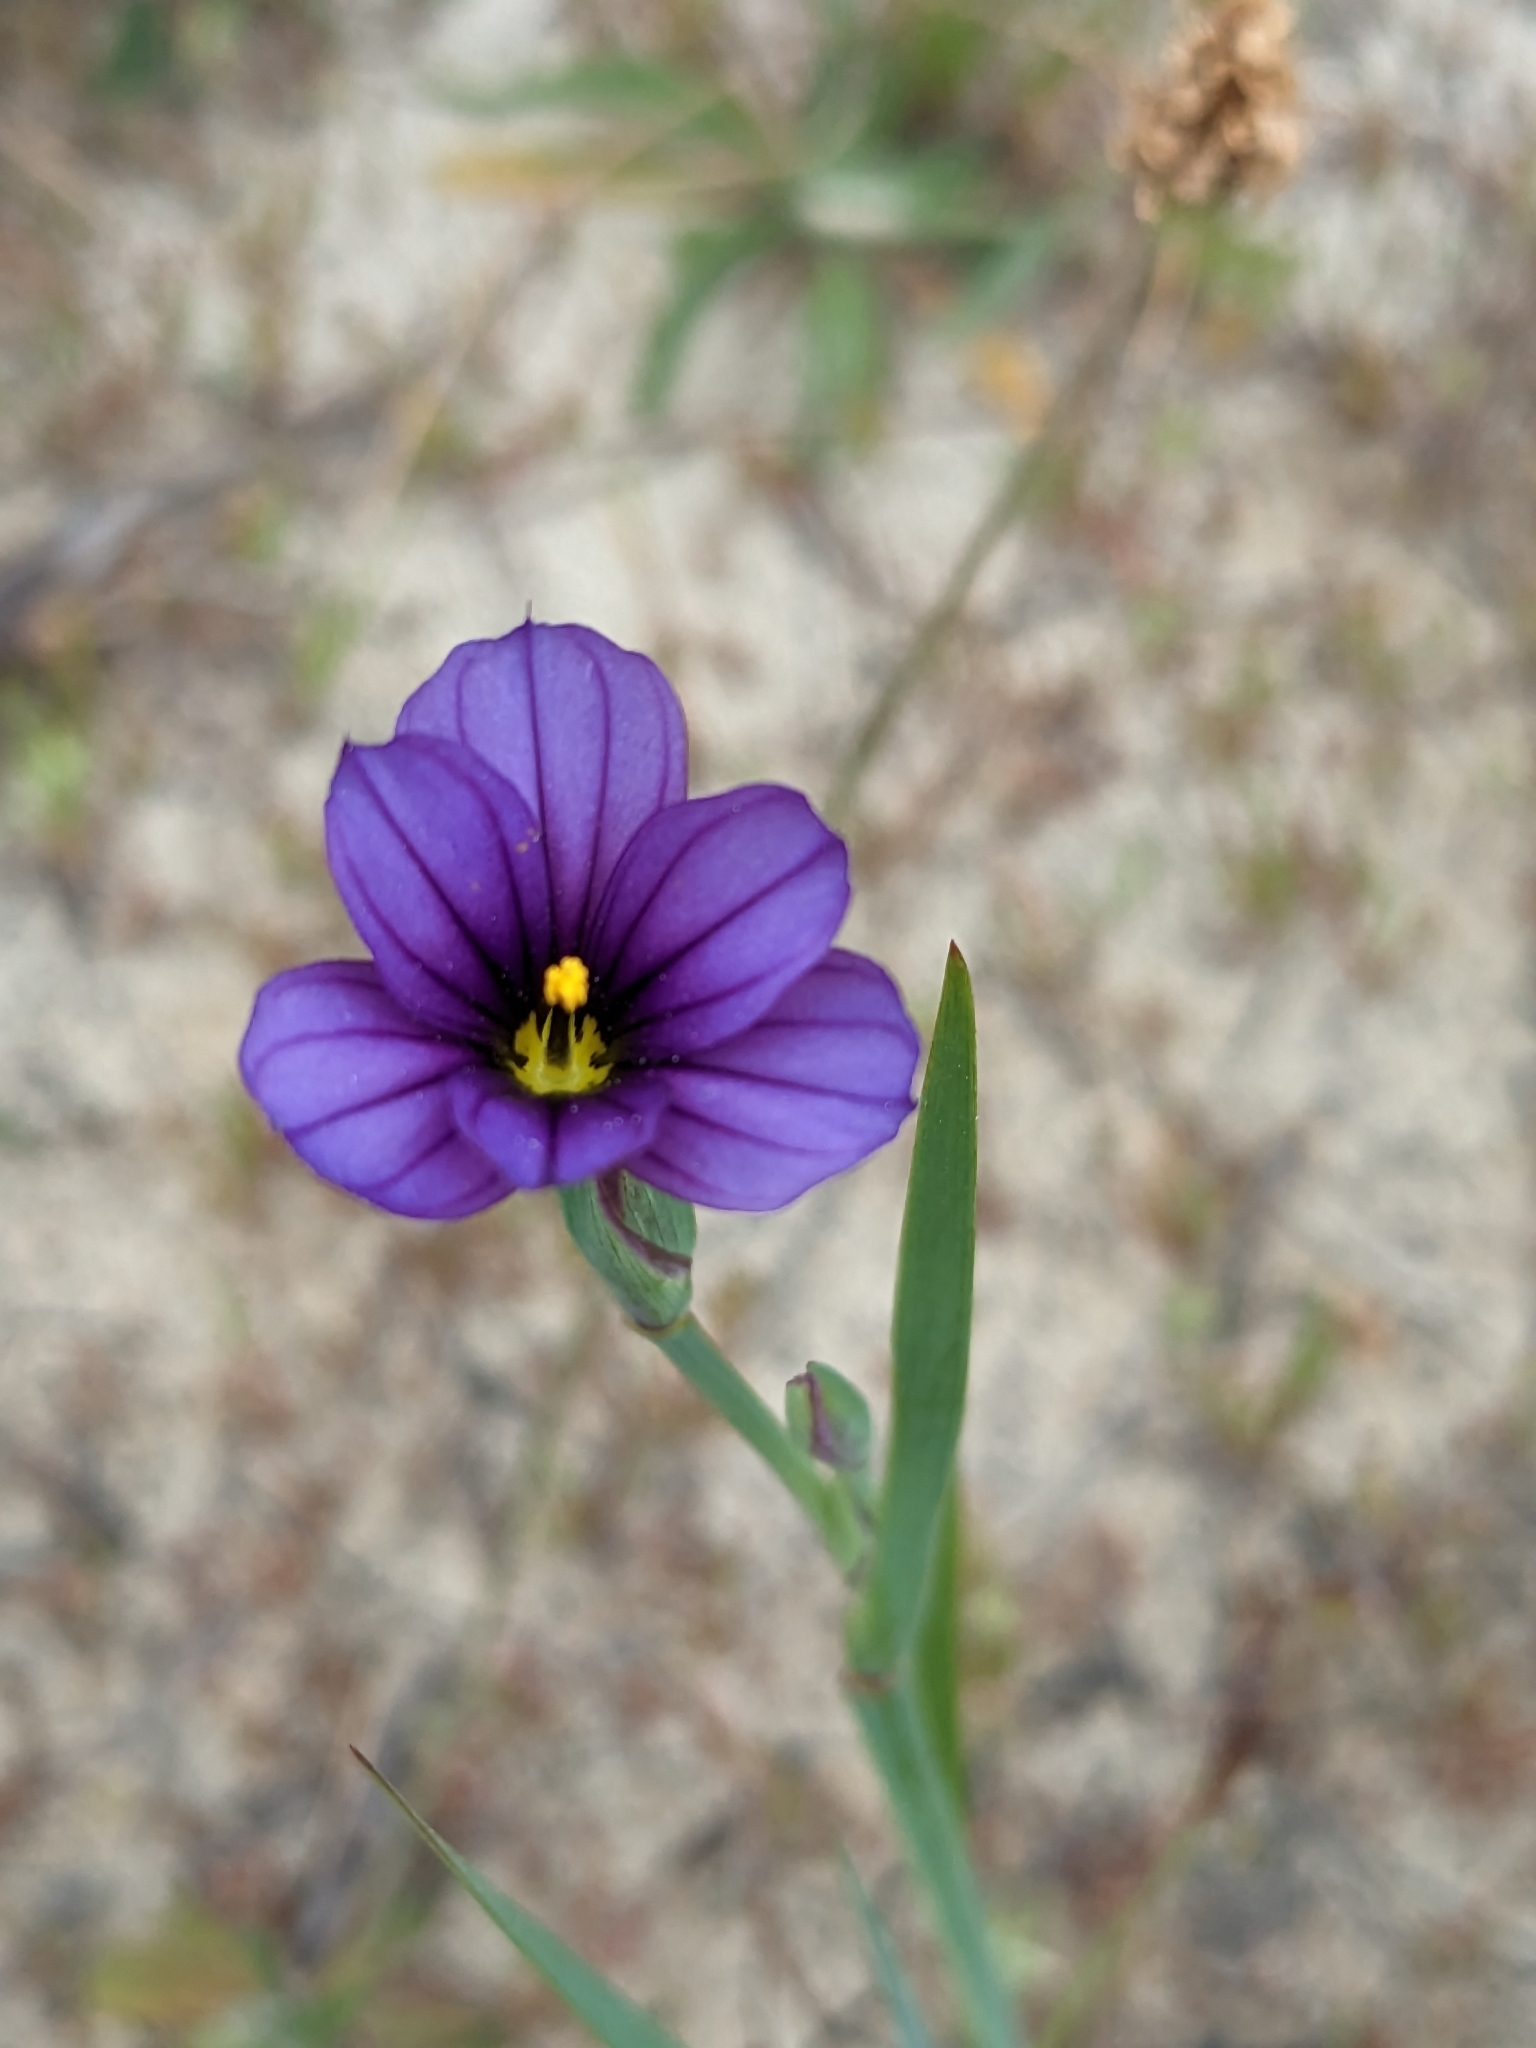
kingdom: Plantae
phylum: Tracheophyta
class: Liliopsida
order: Asparagales
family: Iridaceae
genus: Sisyrinchium
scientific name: Sisyrinchium bellum
